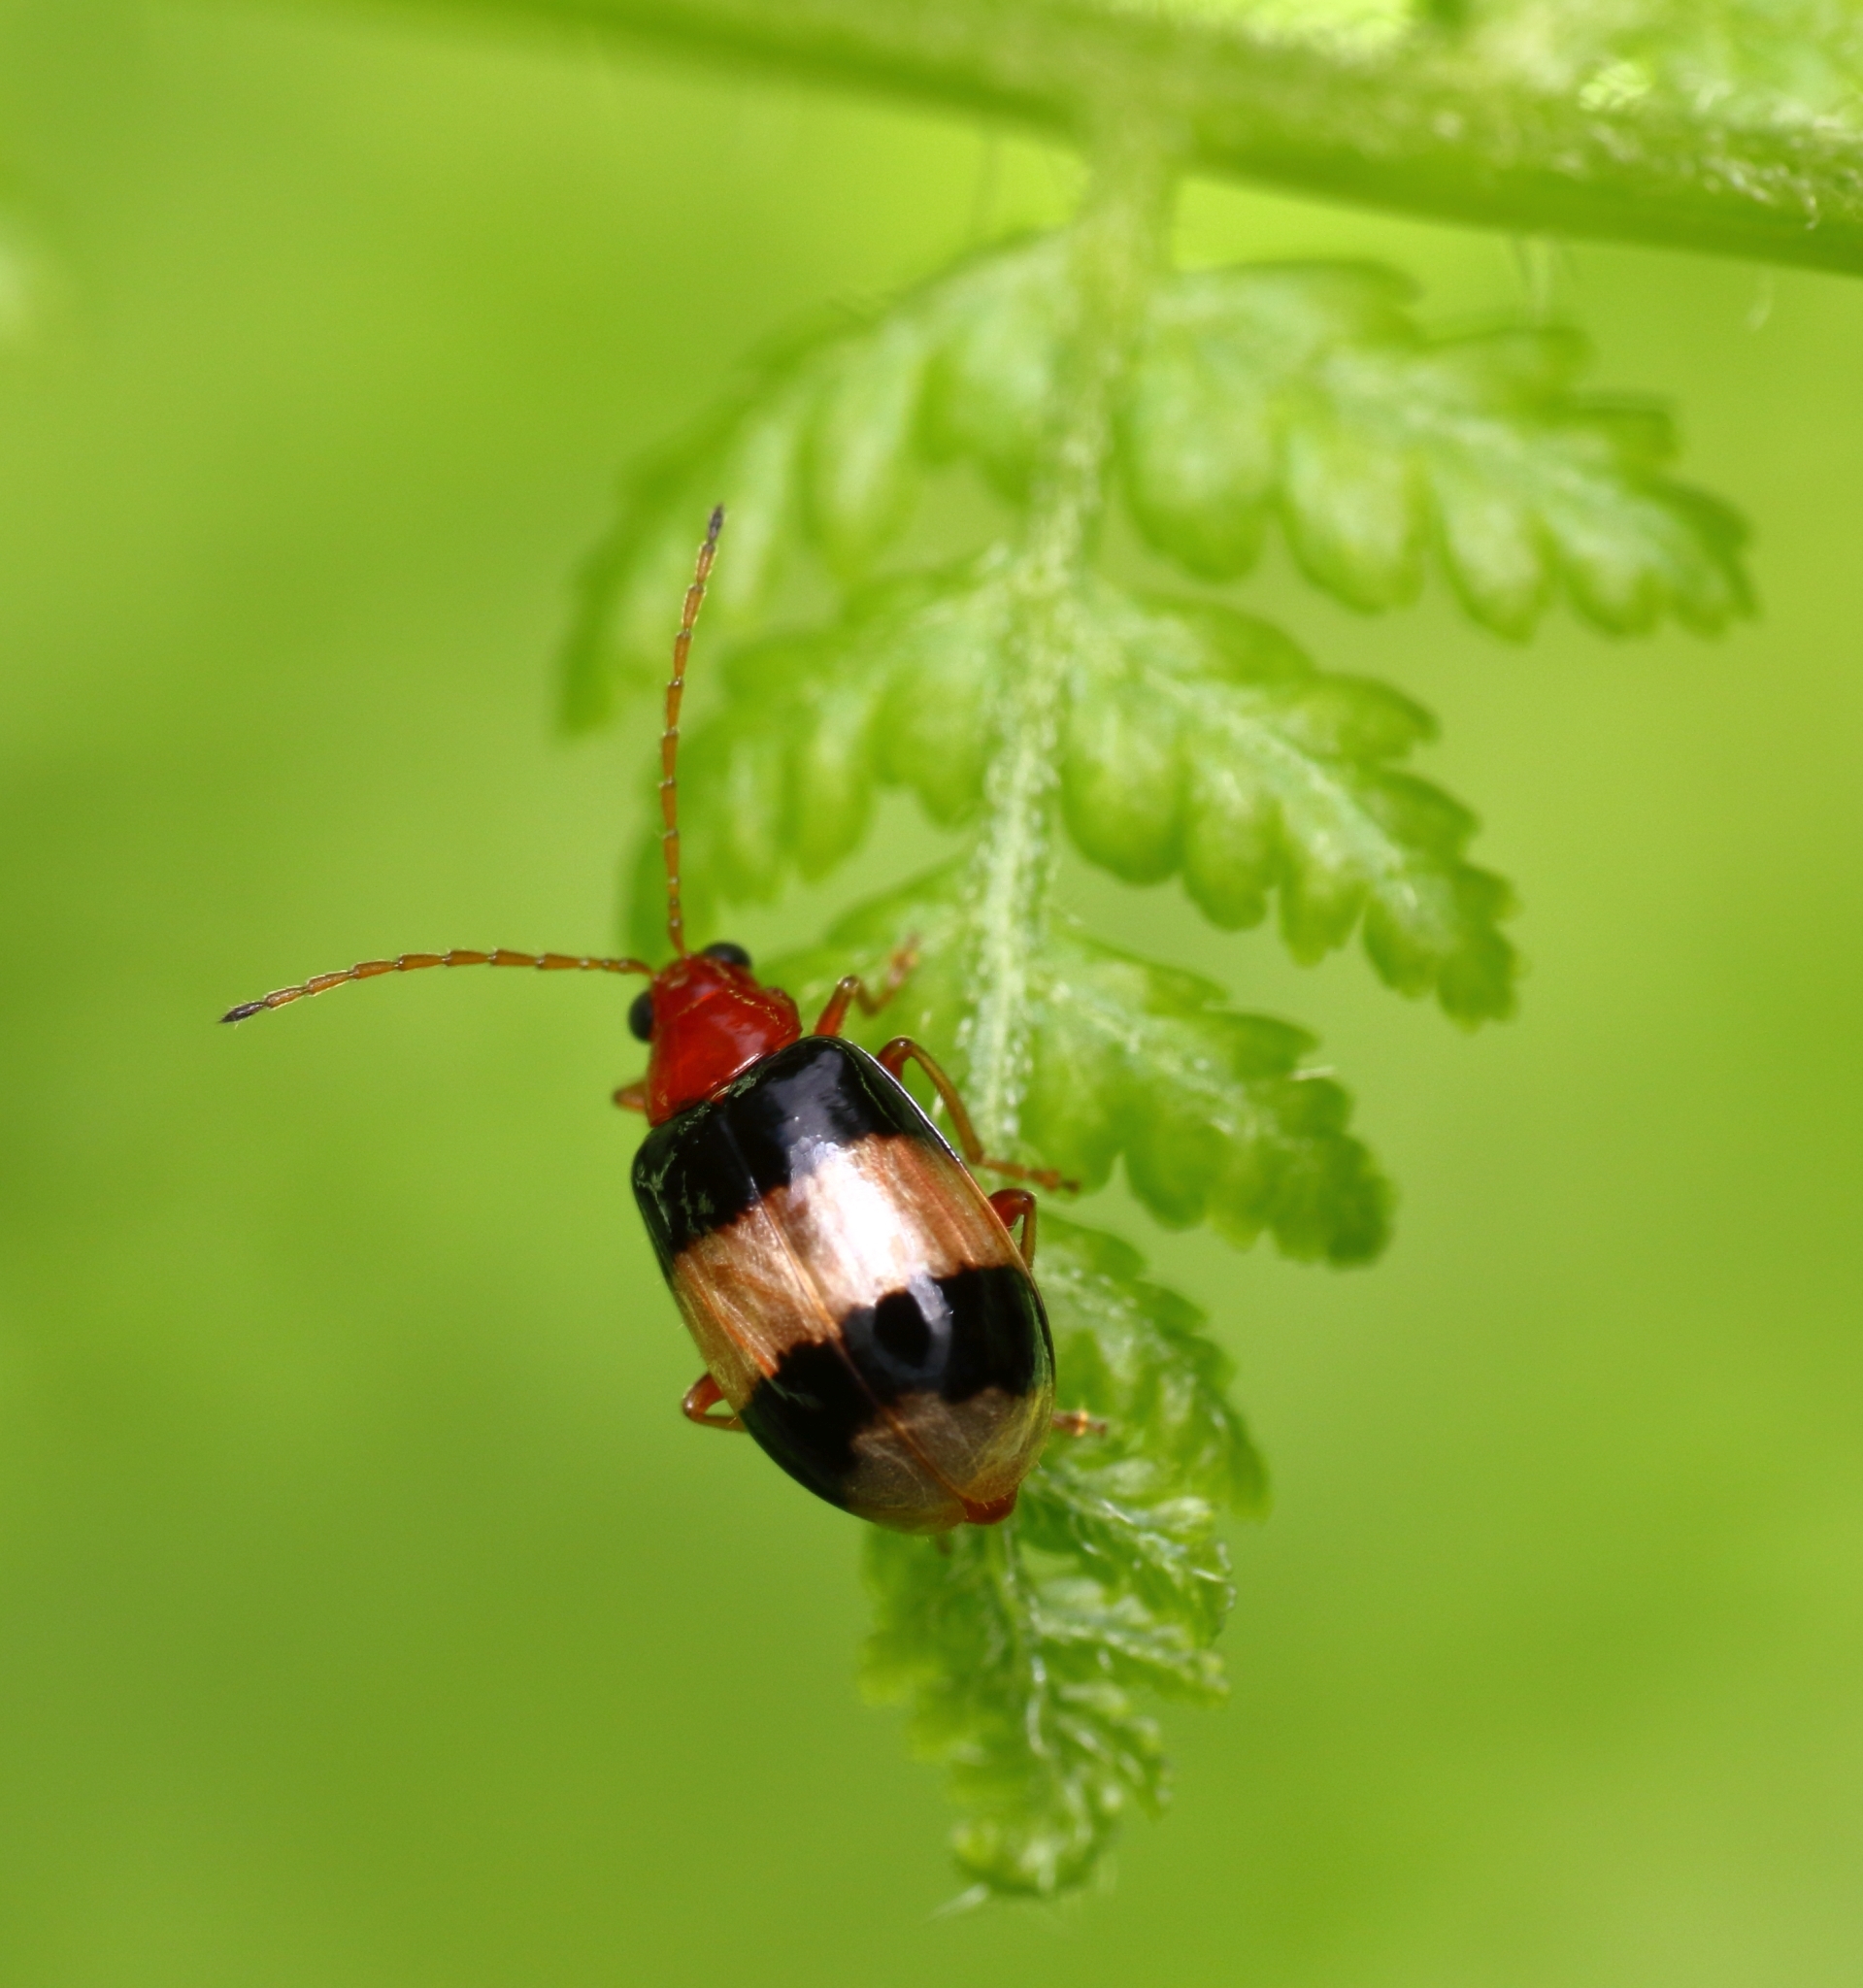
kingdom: Animalia
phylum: Arthropoda
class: Insecta
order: Coleoptera
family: Chrysomelidae
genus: Monolepta
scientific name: Monolepta
